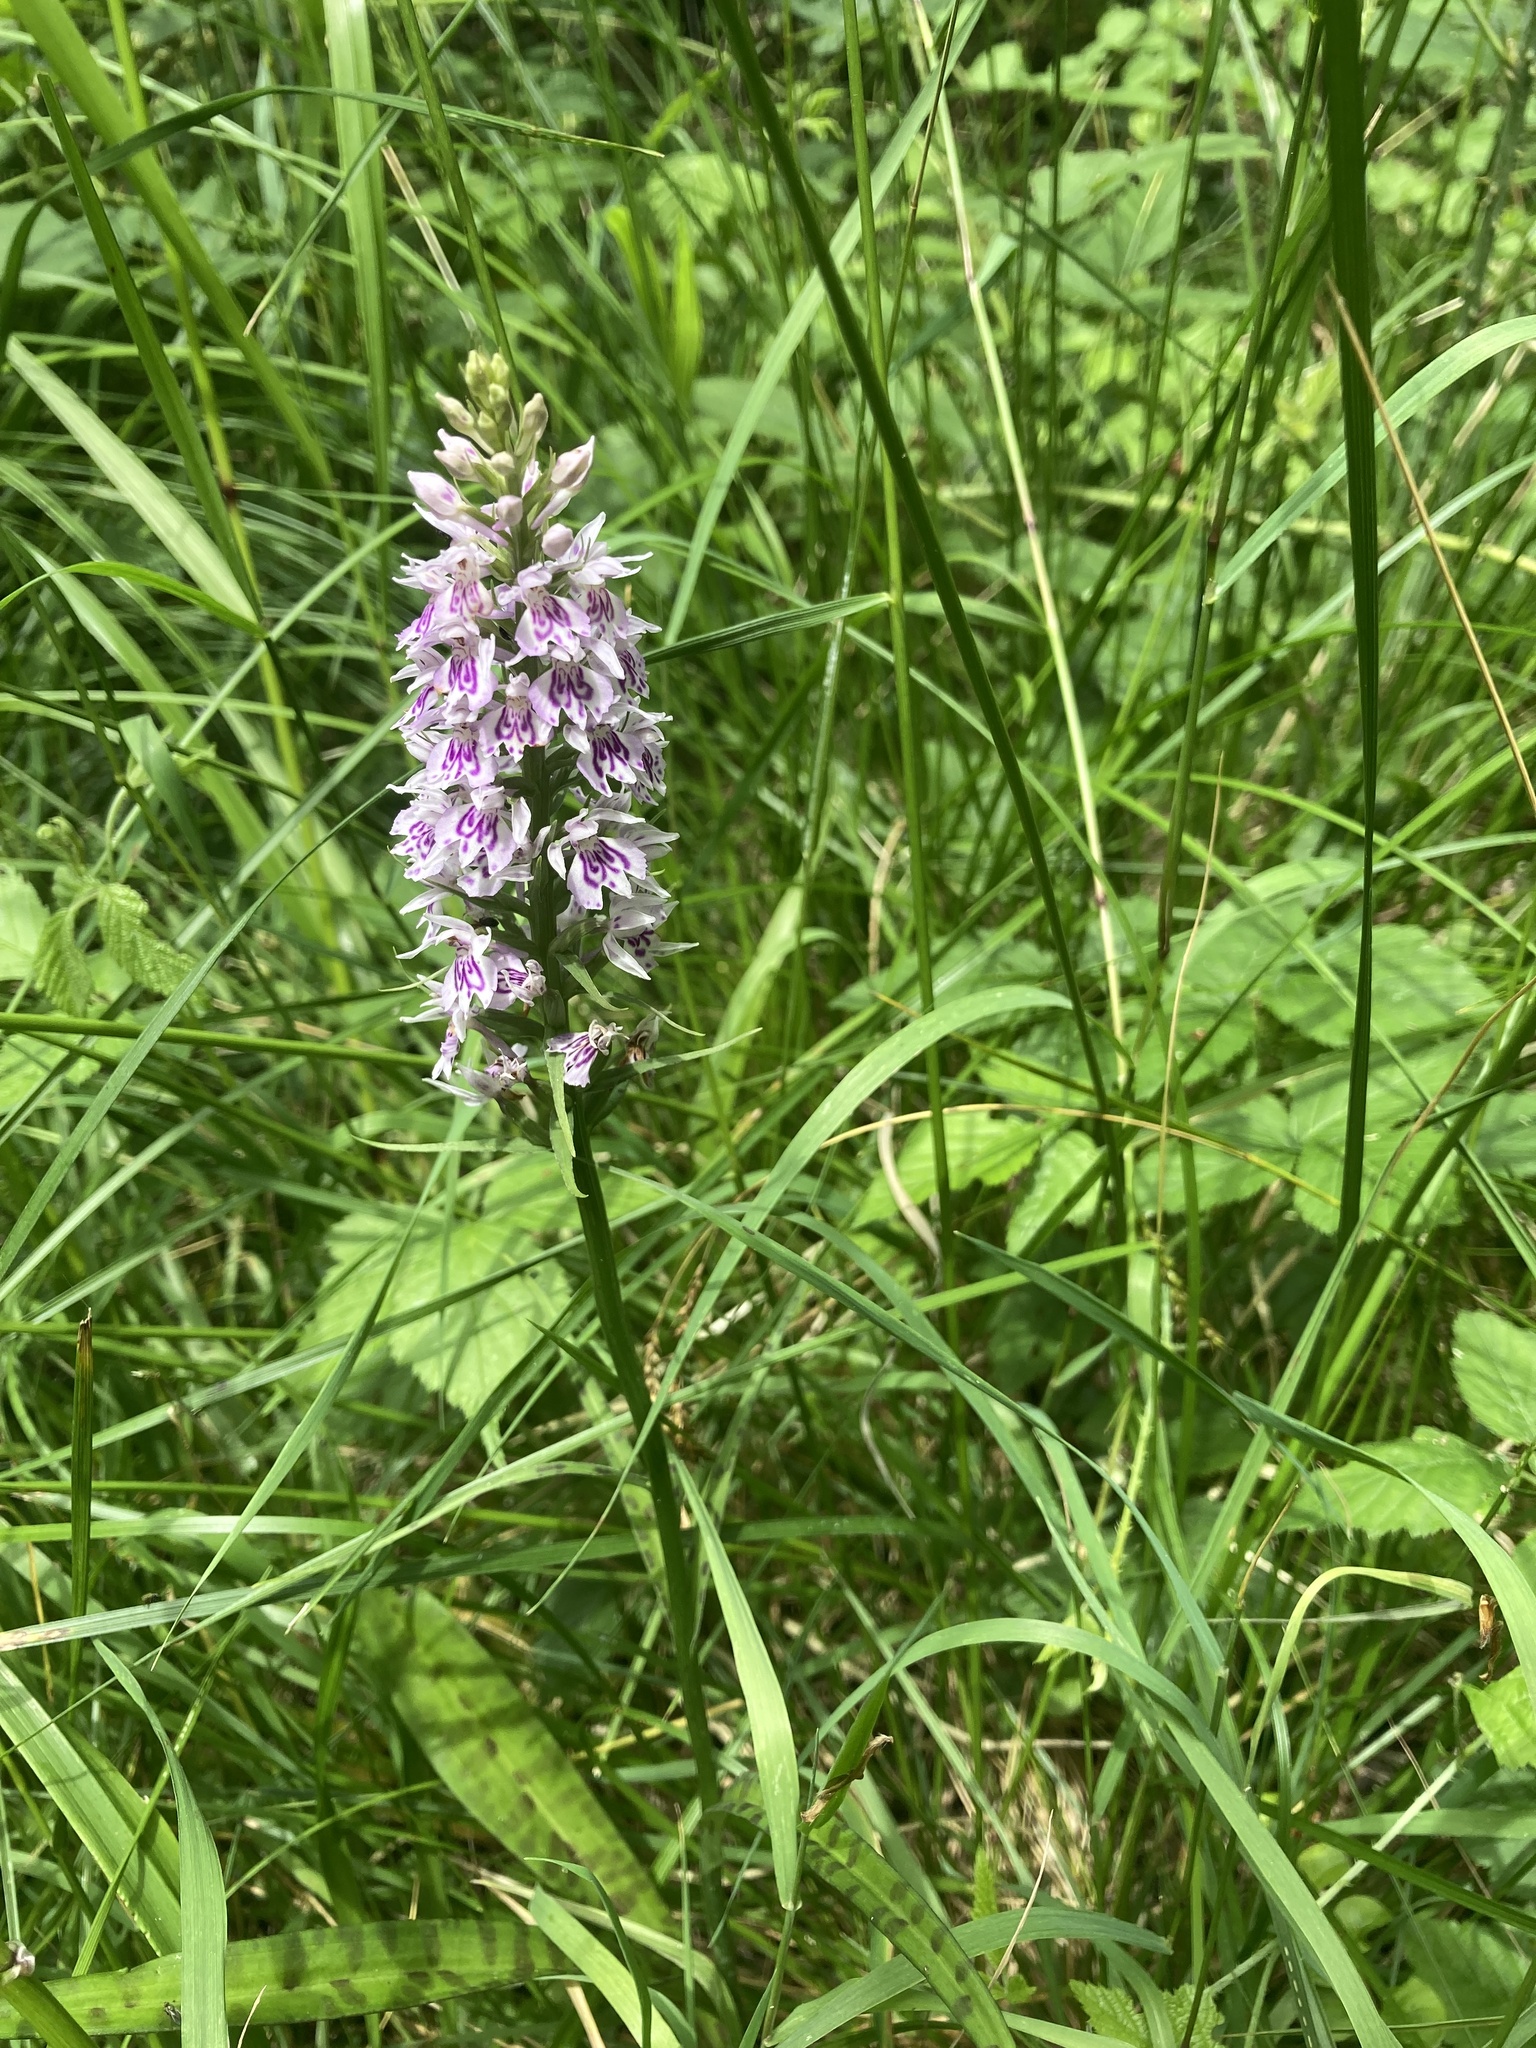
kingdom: Plantae
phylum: Tracheophyta
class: Liliopsida
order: Asparagales
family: Orchidaceae
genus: Dactylorhiza
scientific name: Dactylorhiza maculata
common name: Heath spotted-orchid
